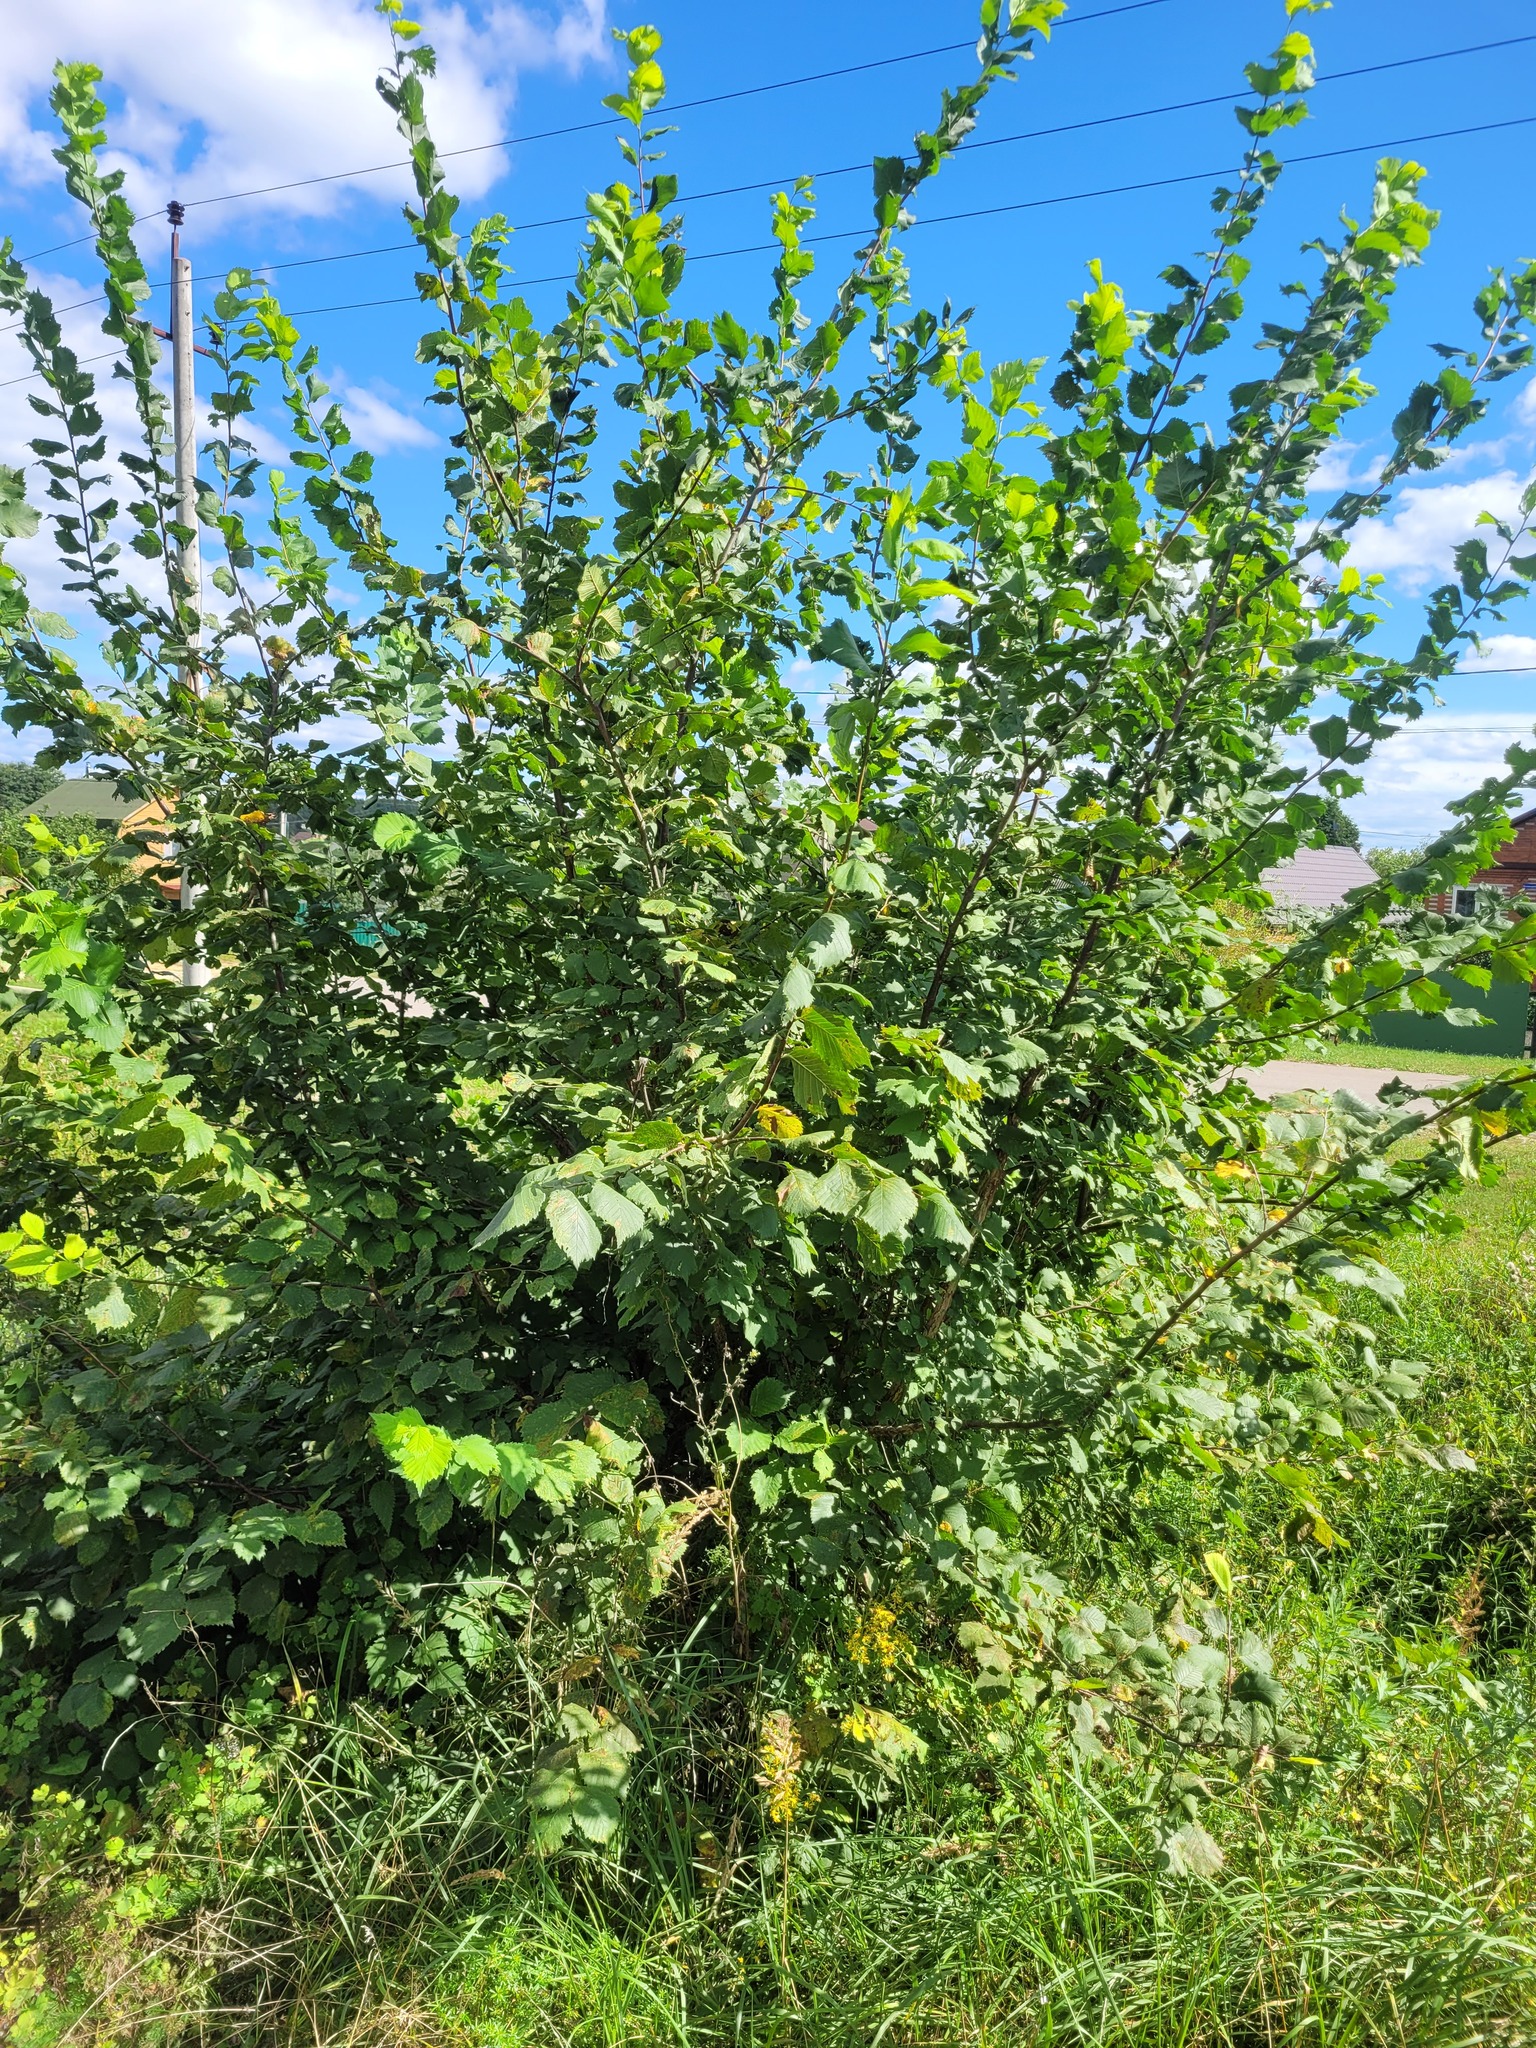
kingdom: Plantae
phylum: Tracheophyta
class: Magnoliopsida
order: Rosales
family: Ulmaceae
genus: Ulmus
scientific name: Ulmus laevis
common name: European white-elm
